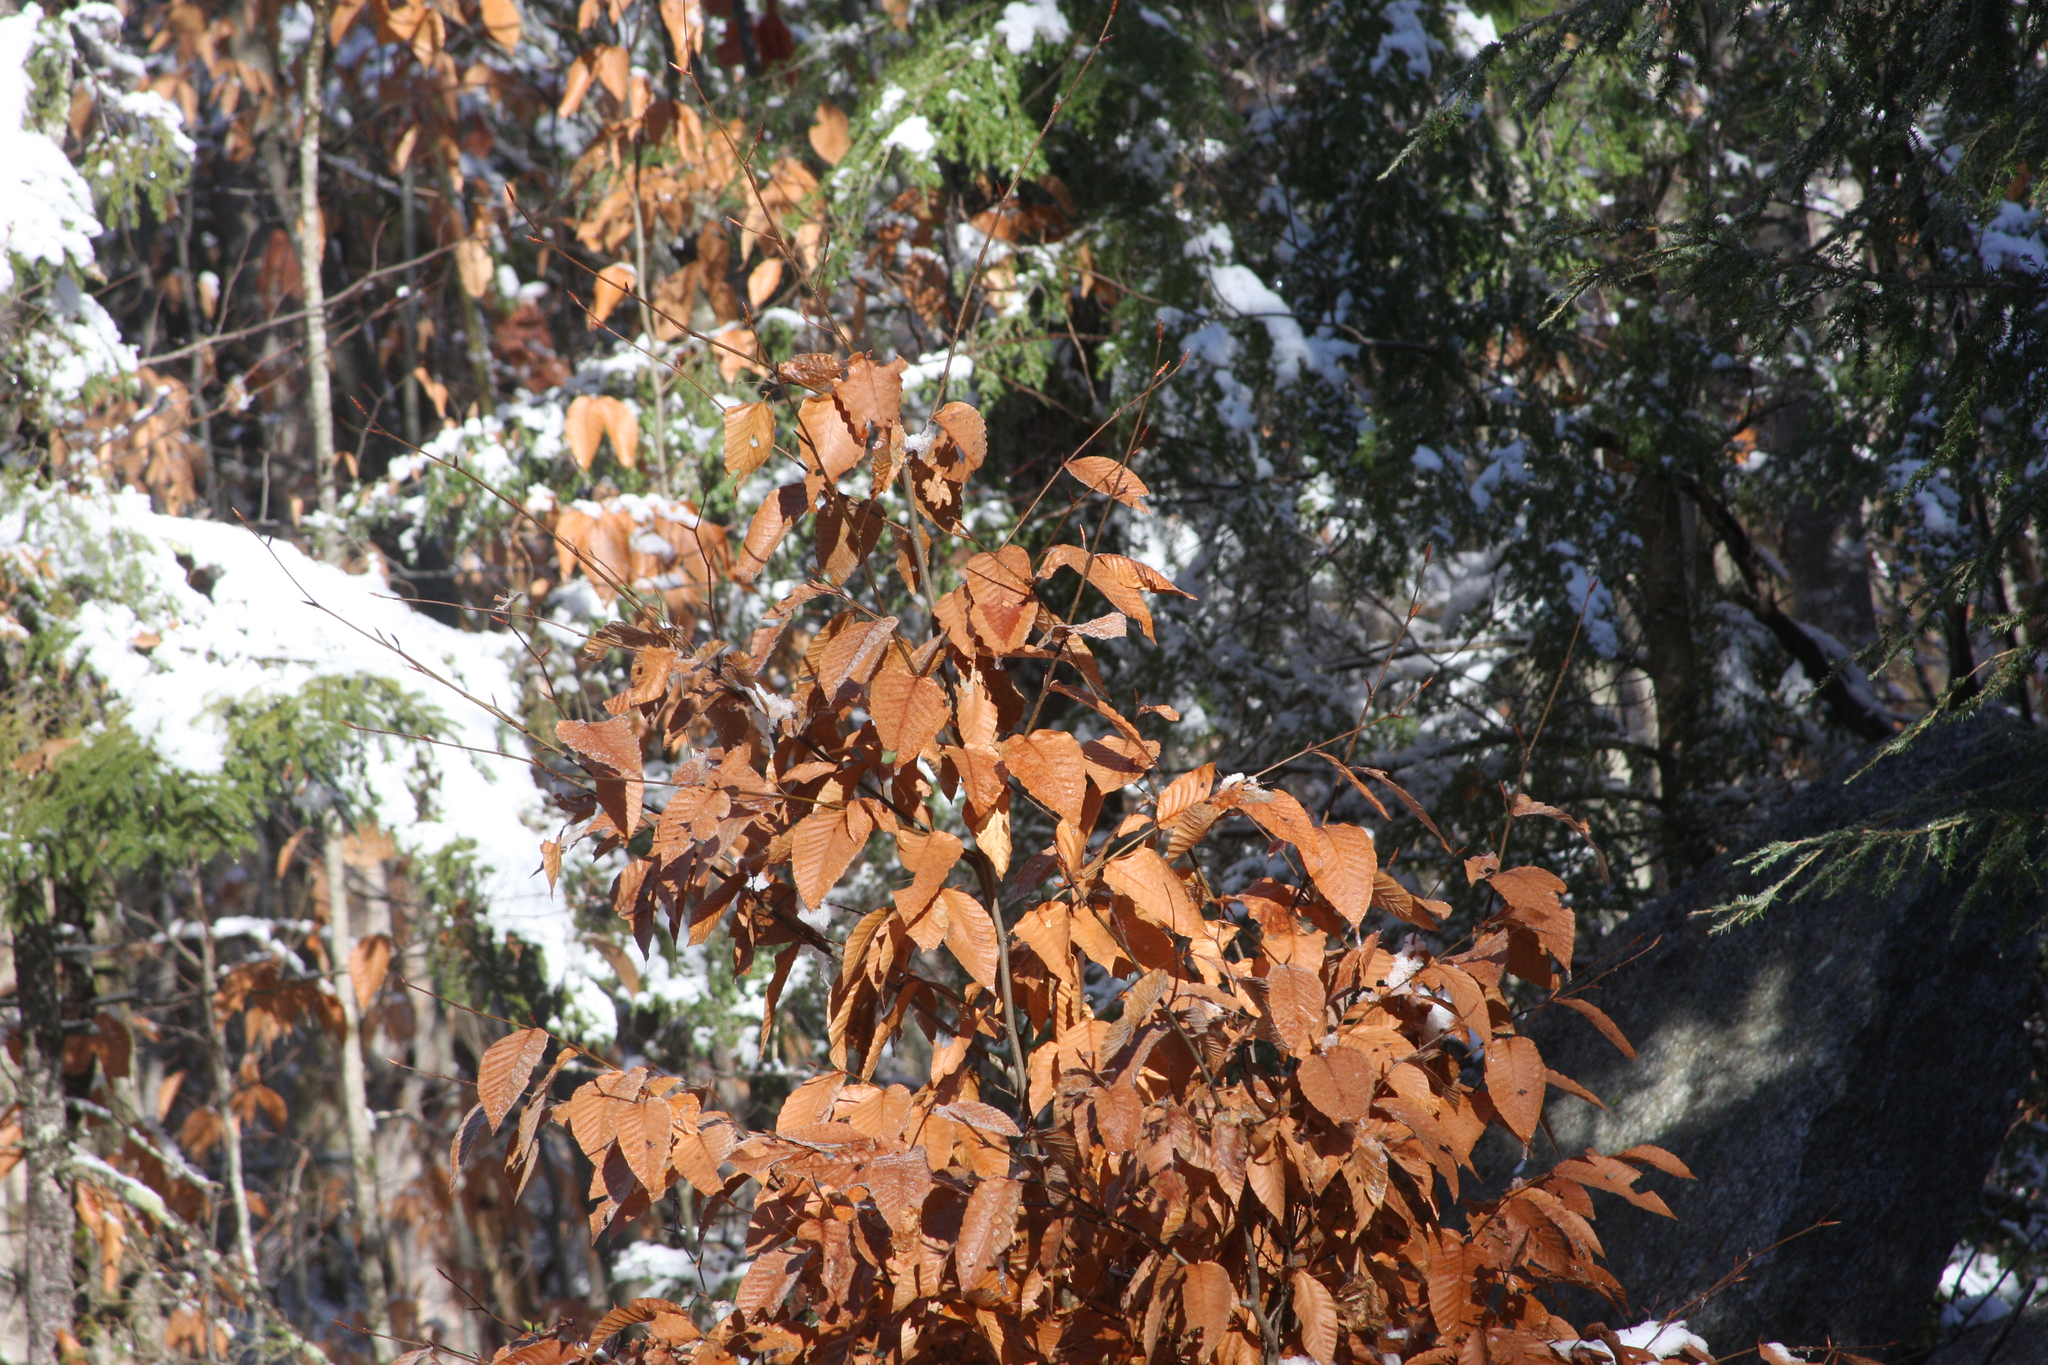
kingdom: Plantae
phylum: Tracheophyta
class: Magnoliopsida
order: Fagales
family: Fagaceae
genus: Fagus
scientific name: Fagus grandifolia
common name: American beech
